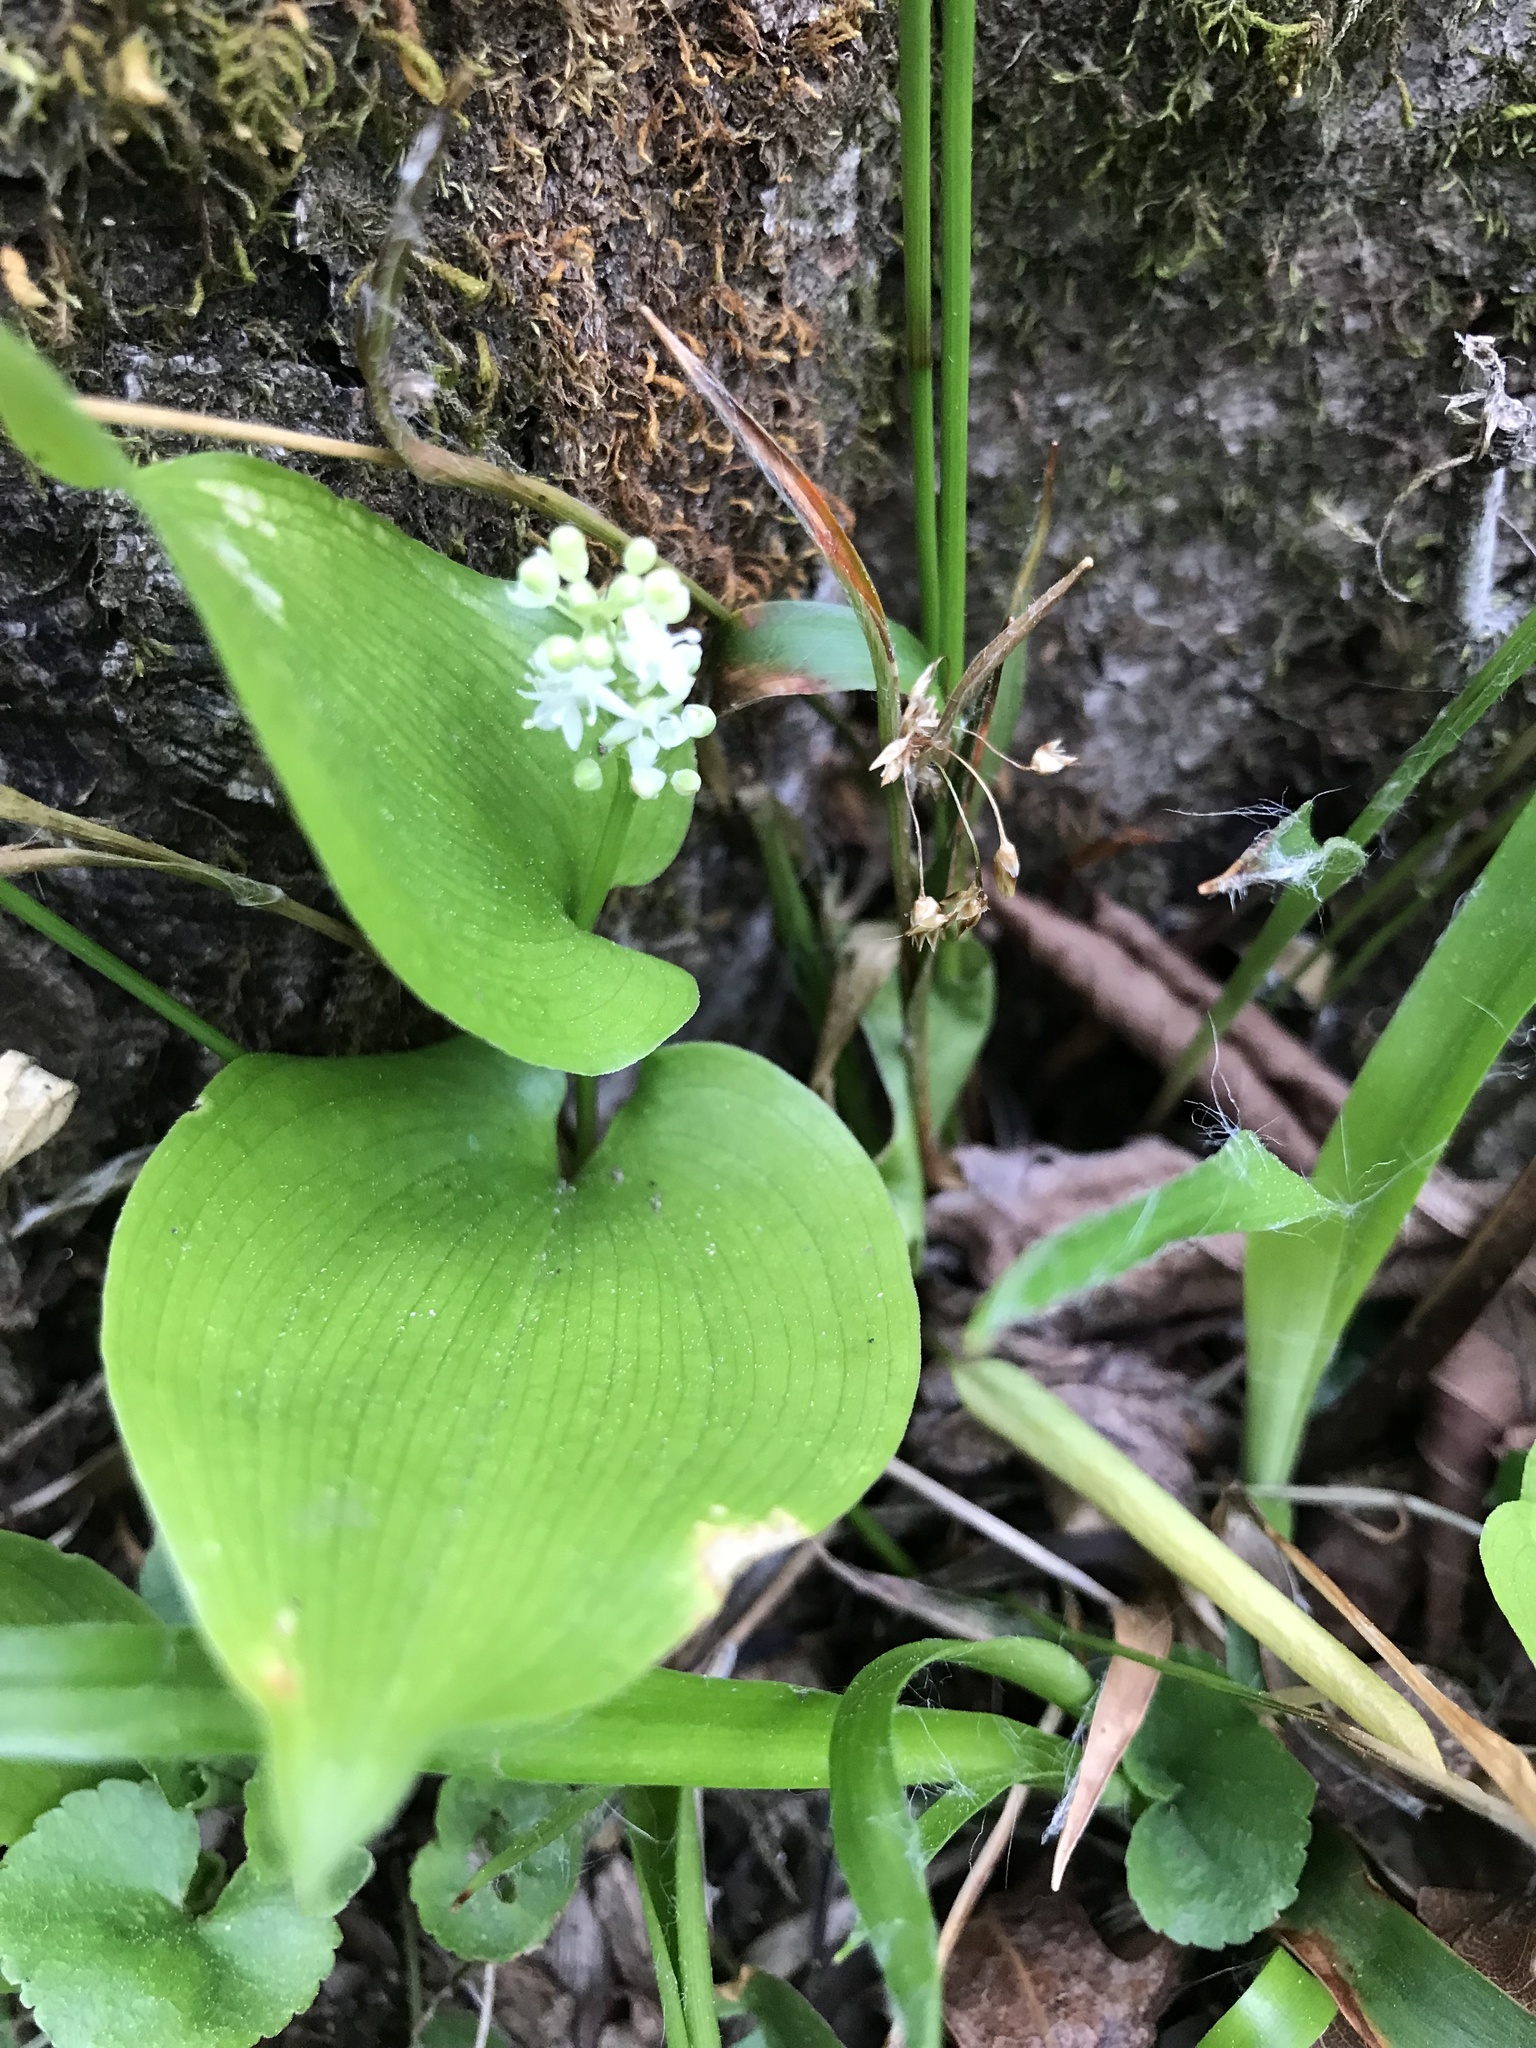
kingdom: Plantae
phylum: Tracheophyta
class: Liliopsida
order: Asparagales
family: Asparagaceae
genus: Maianthemum
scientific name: Maianthemum canadense
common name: False lily-of-the-valley
